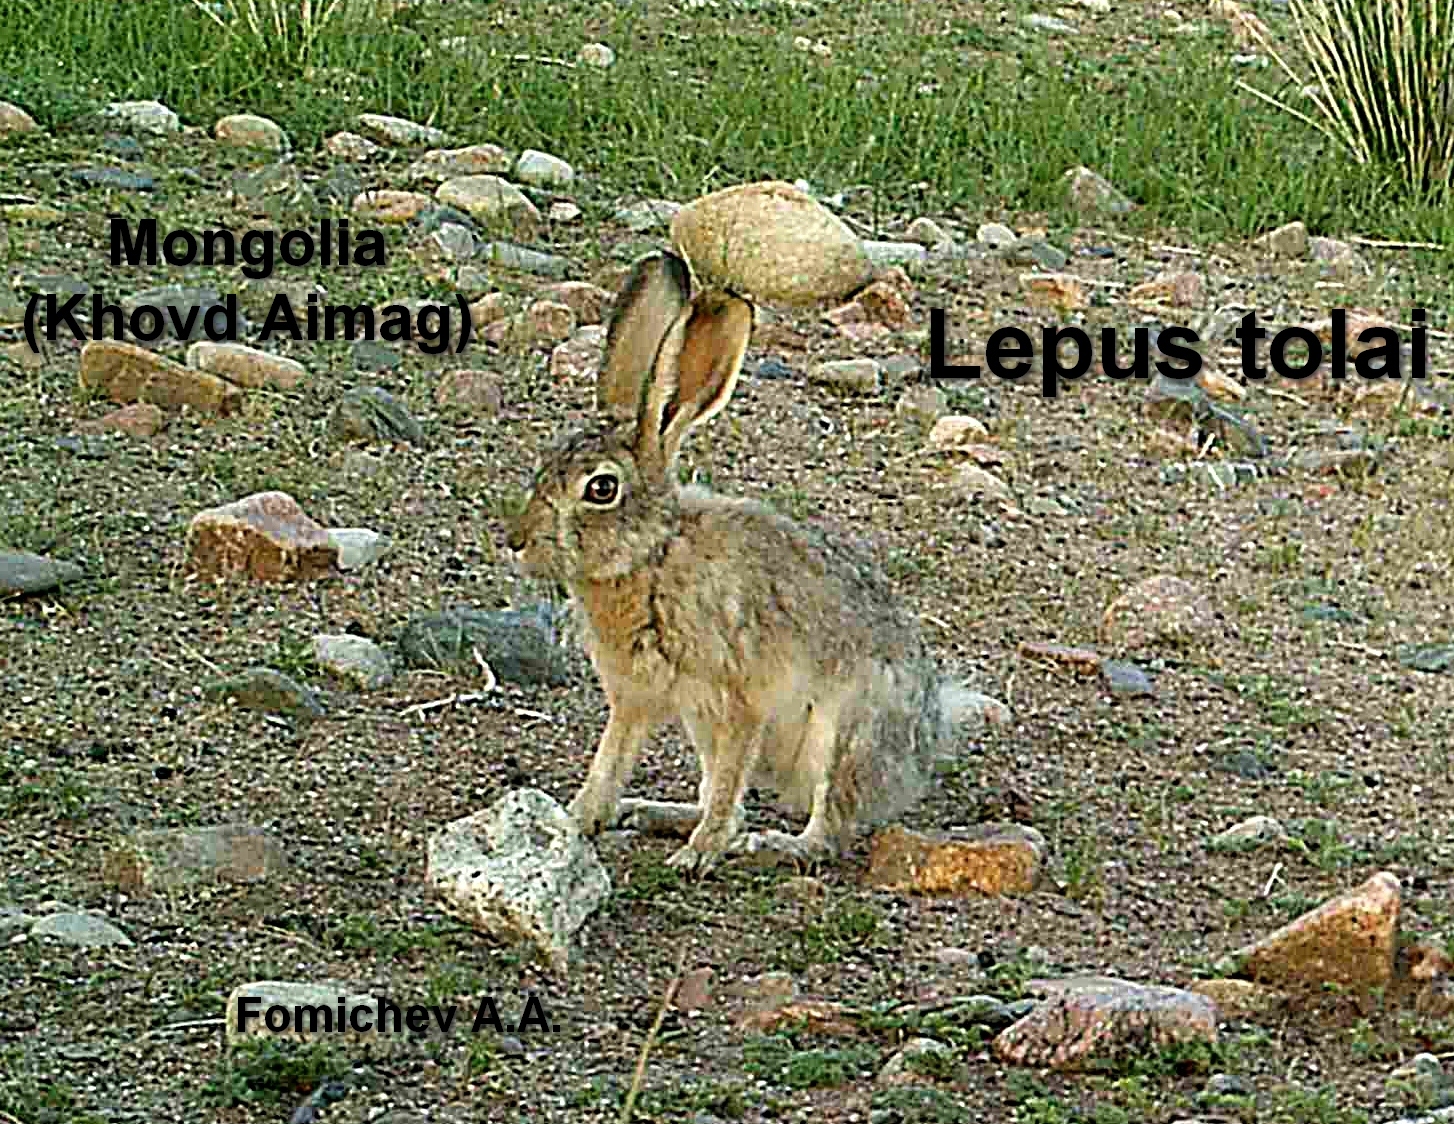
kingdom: Animalia
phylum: Chordata
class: Mammalia
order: Lagomorpha
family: Leporidae
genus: Lepus
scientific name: Lepus tolai
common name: Tolai hare
